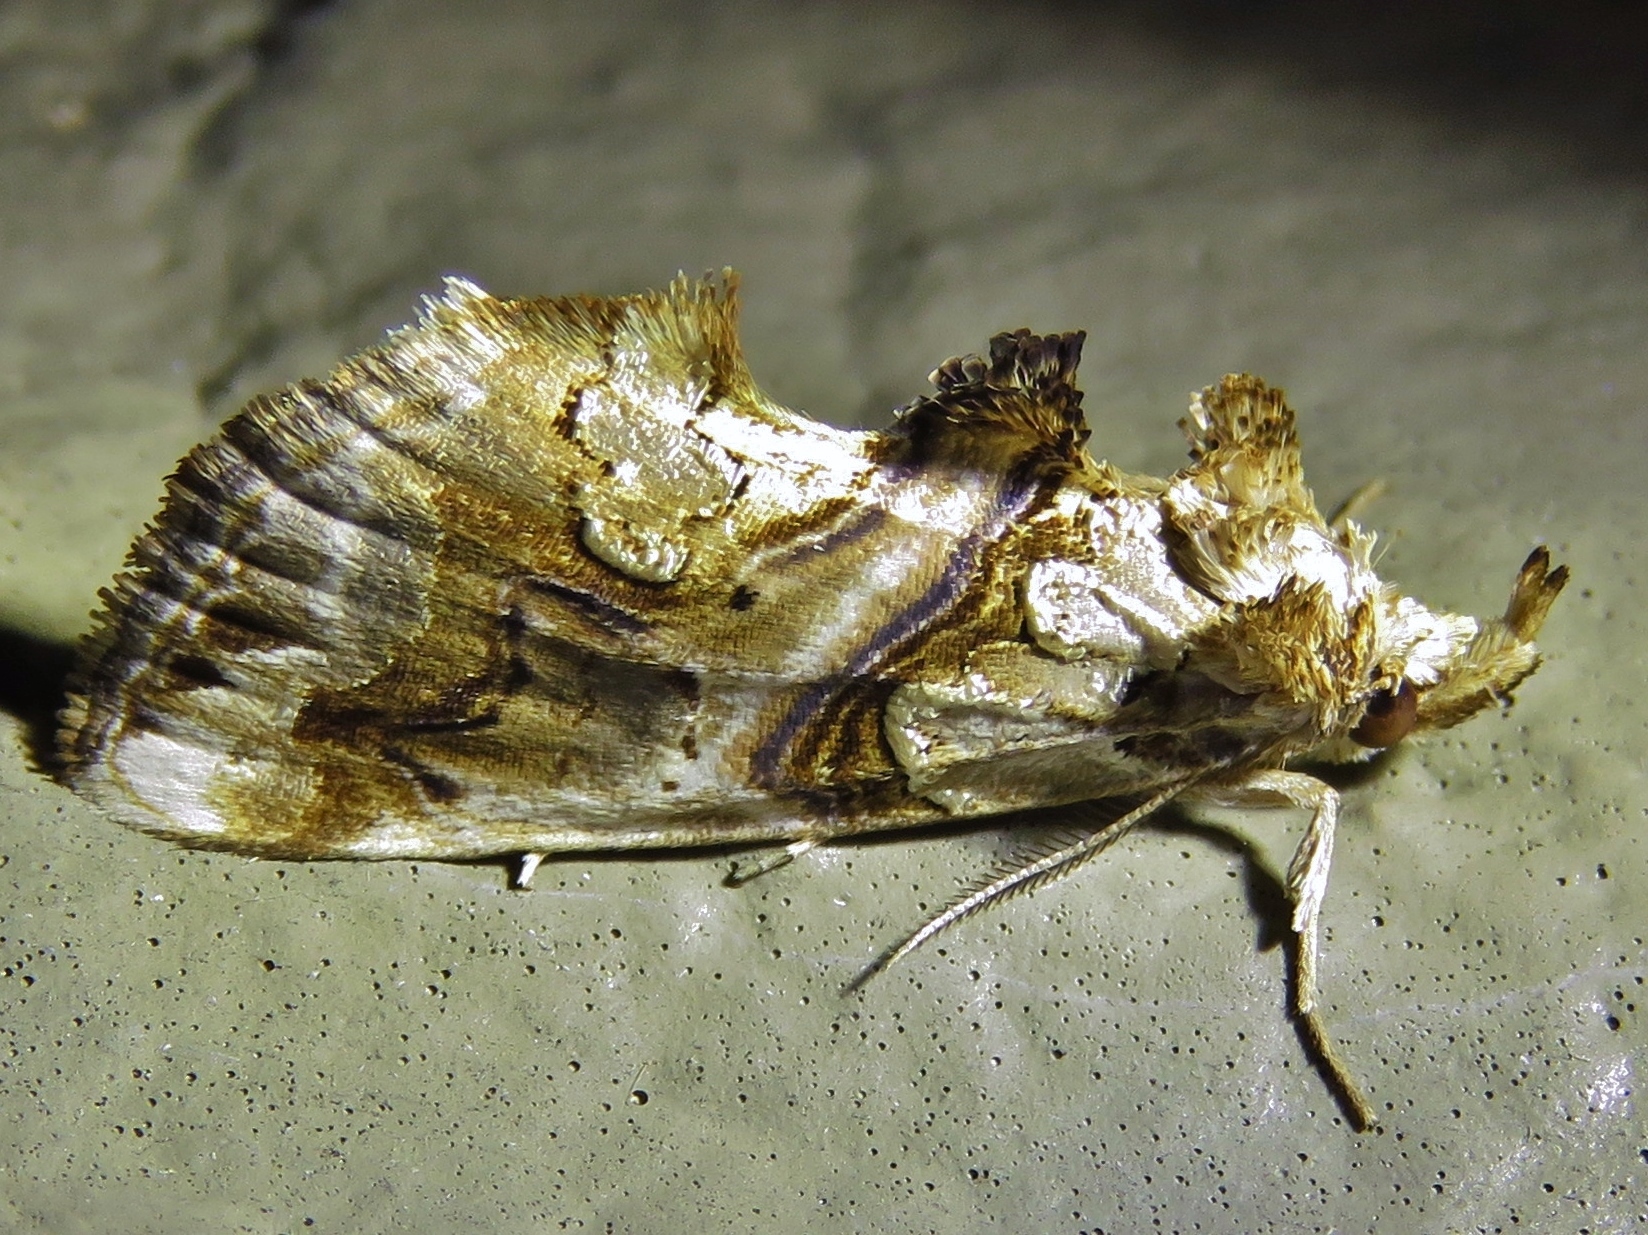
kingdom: Animalia
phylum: Arthropoda
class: Insecta
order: Lepidoptera
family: Erebidae
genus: Plusiodonta
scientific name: Plusiodonta compressipalpis
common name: Moonseed moth
